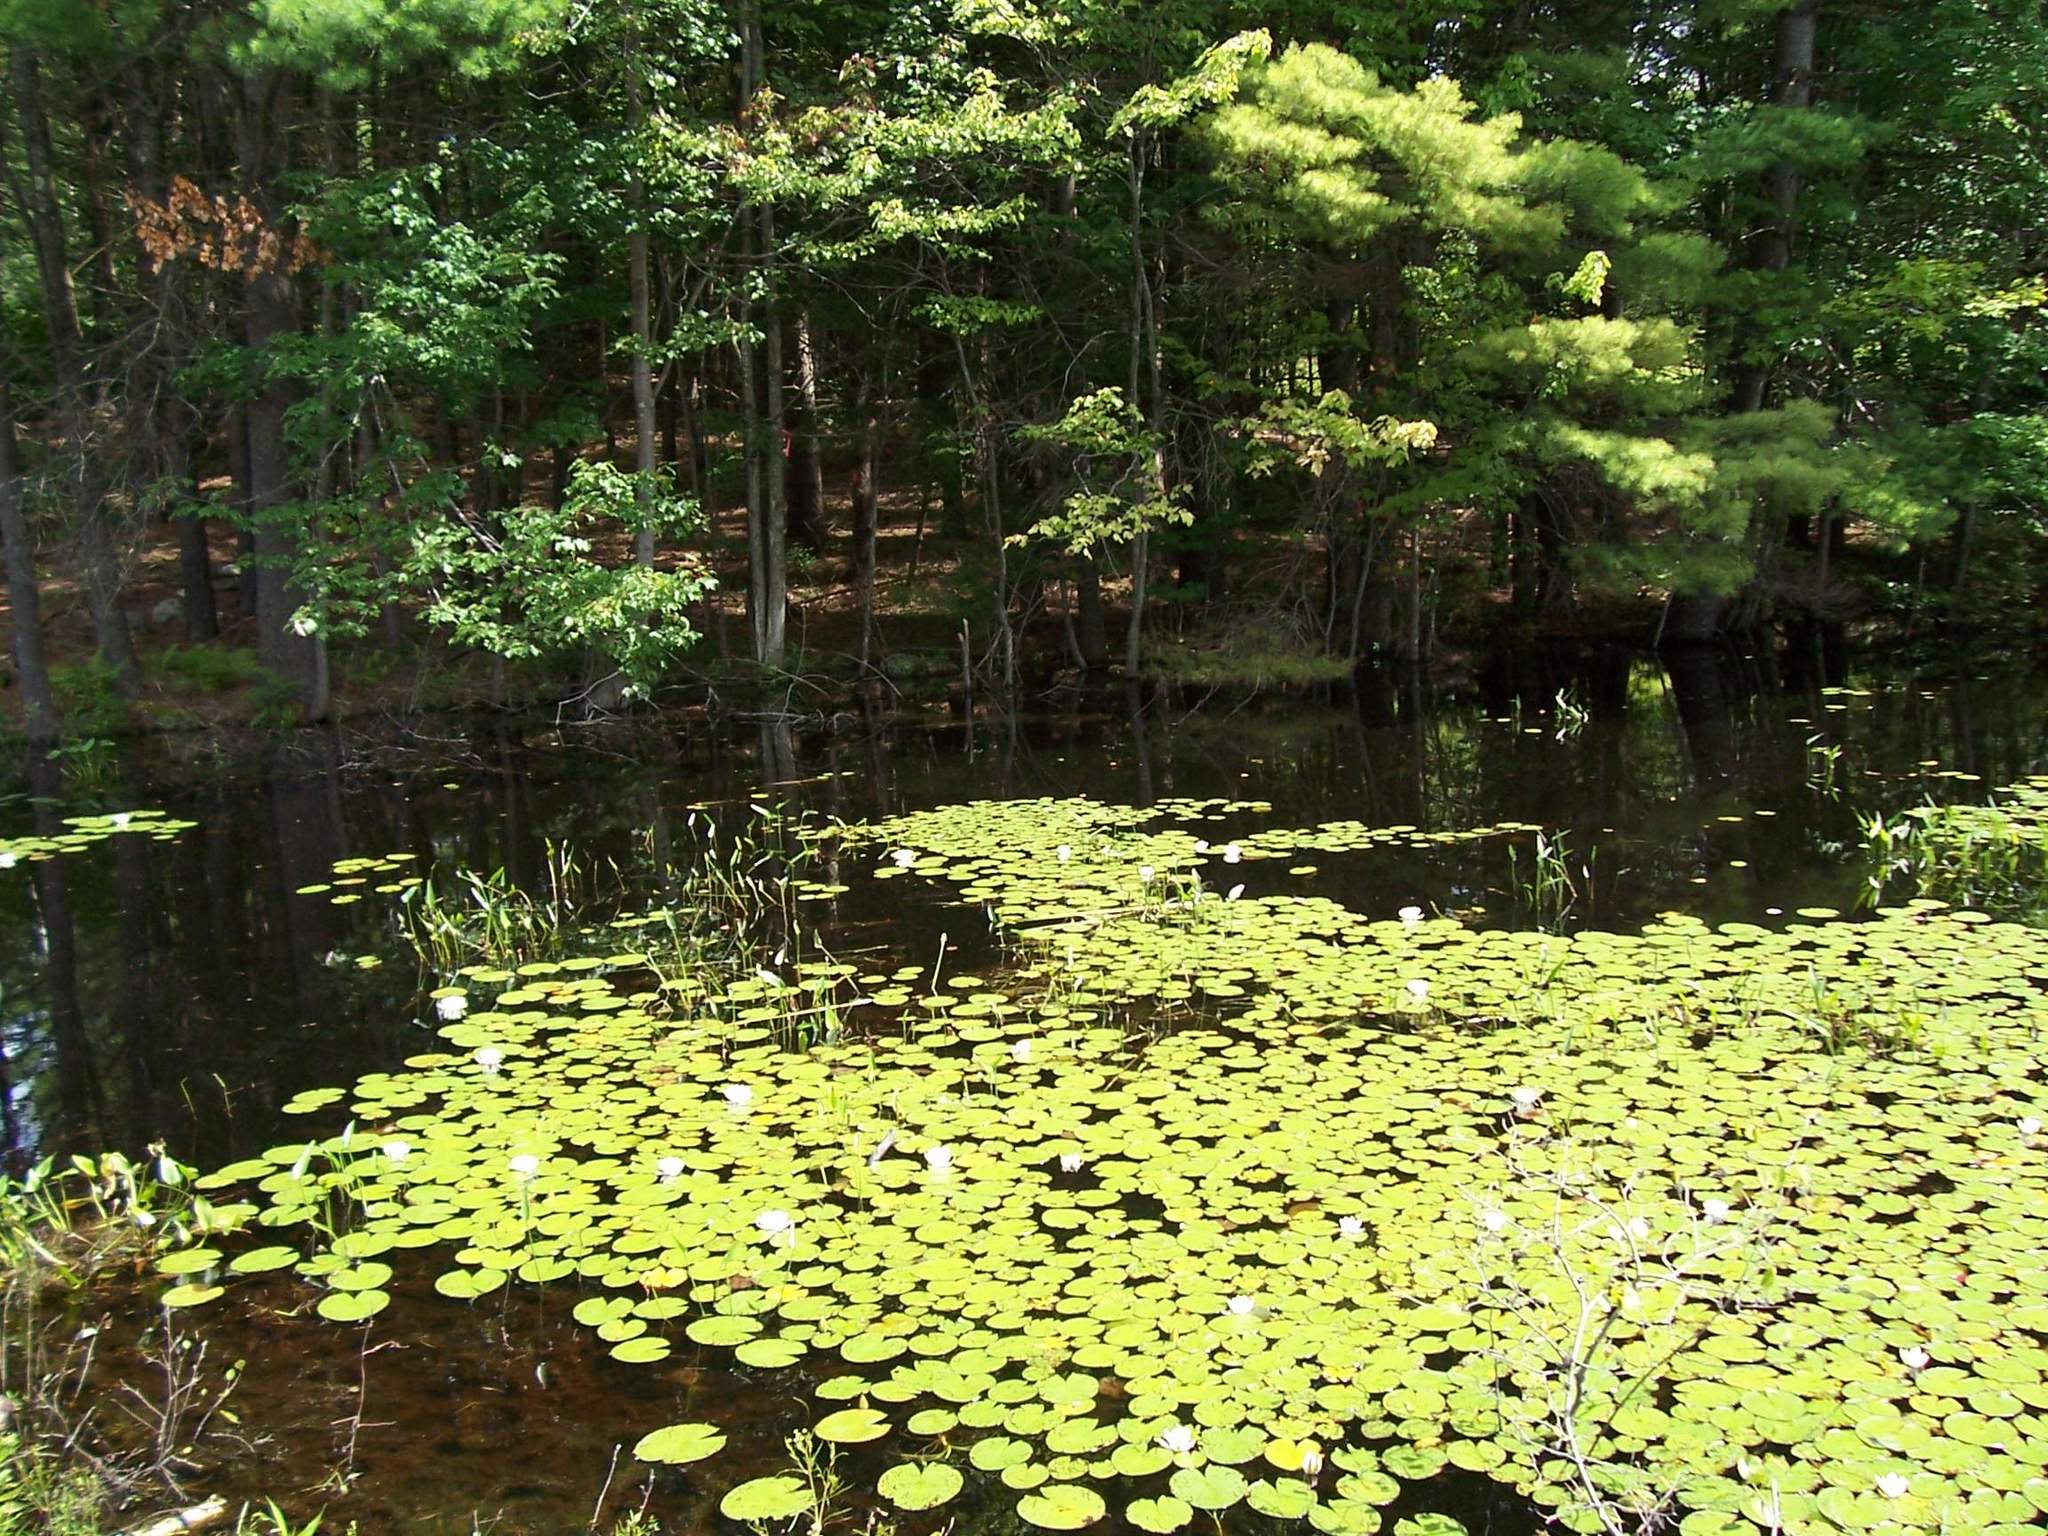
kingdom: Plantae
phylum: Tracheophyta
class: Magnoliopsida
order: Nymphaeales
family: Nymphaeaceae
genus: Nymphaea
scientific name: Nymphaea odorata
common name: Fragrant water-lily
